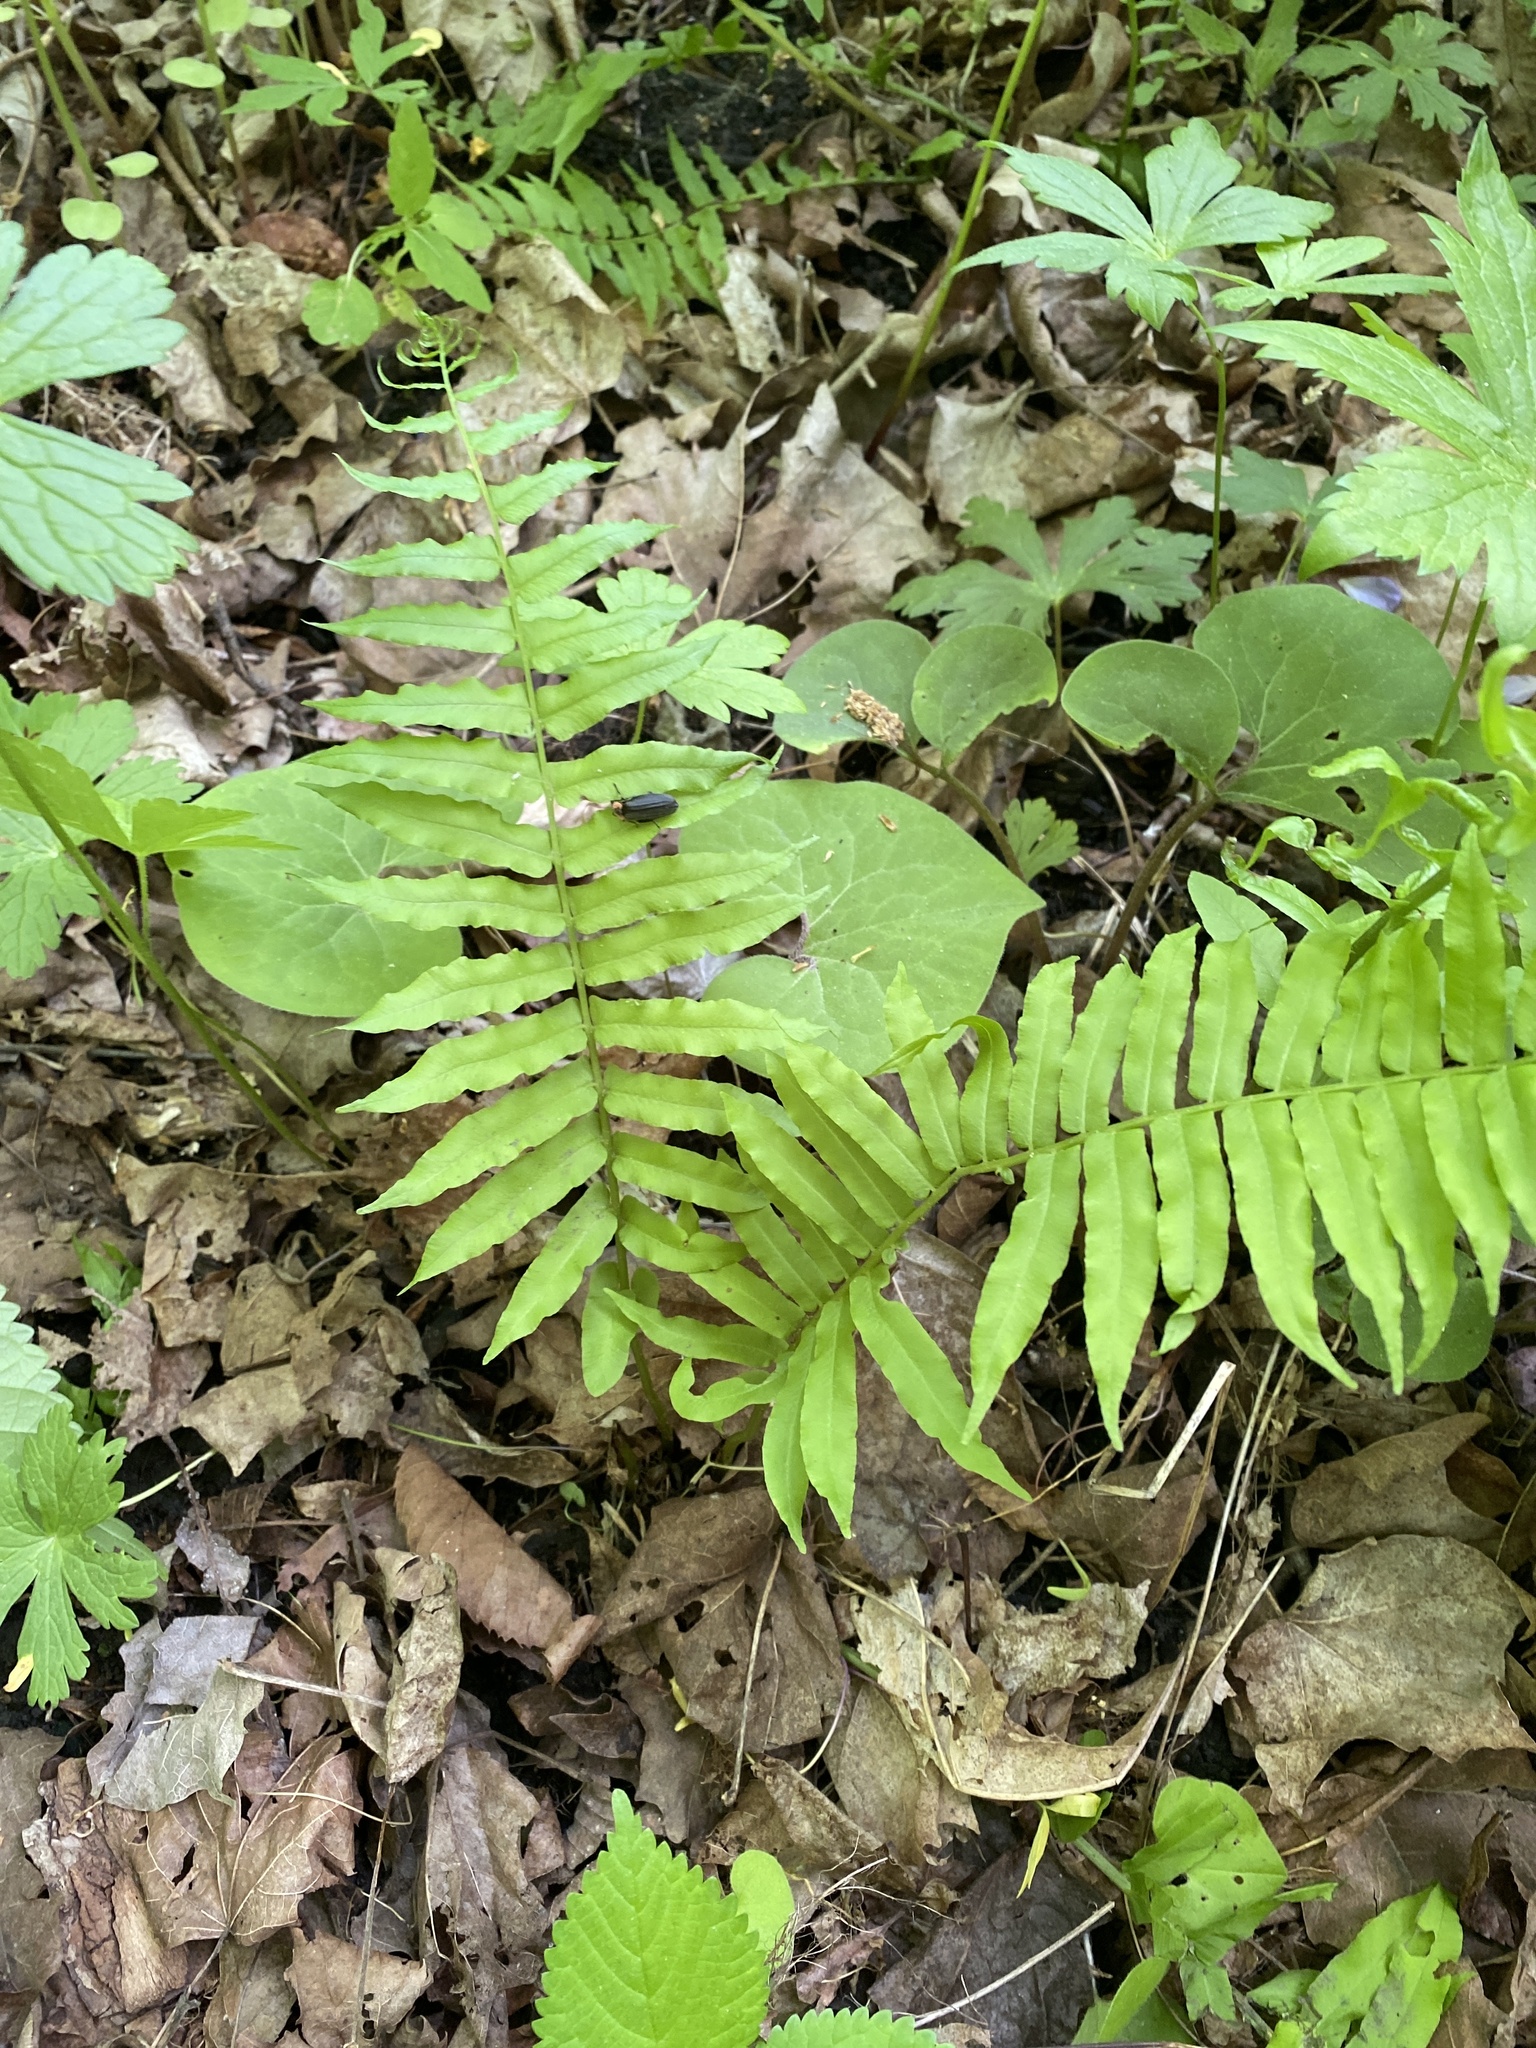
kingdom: Plantae
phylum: Tracheophyta
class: Polypodiopsida
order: Polypodiales
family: Diplaziopsidaceae
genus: Homalosorus
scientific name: Homalosorus pycnocarpos
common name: Glade fern
